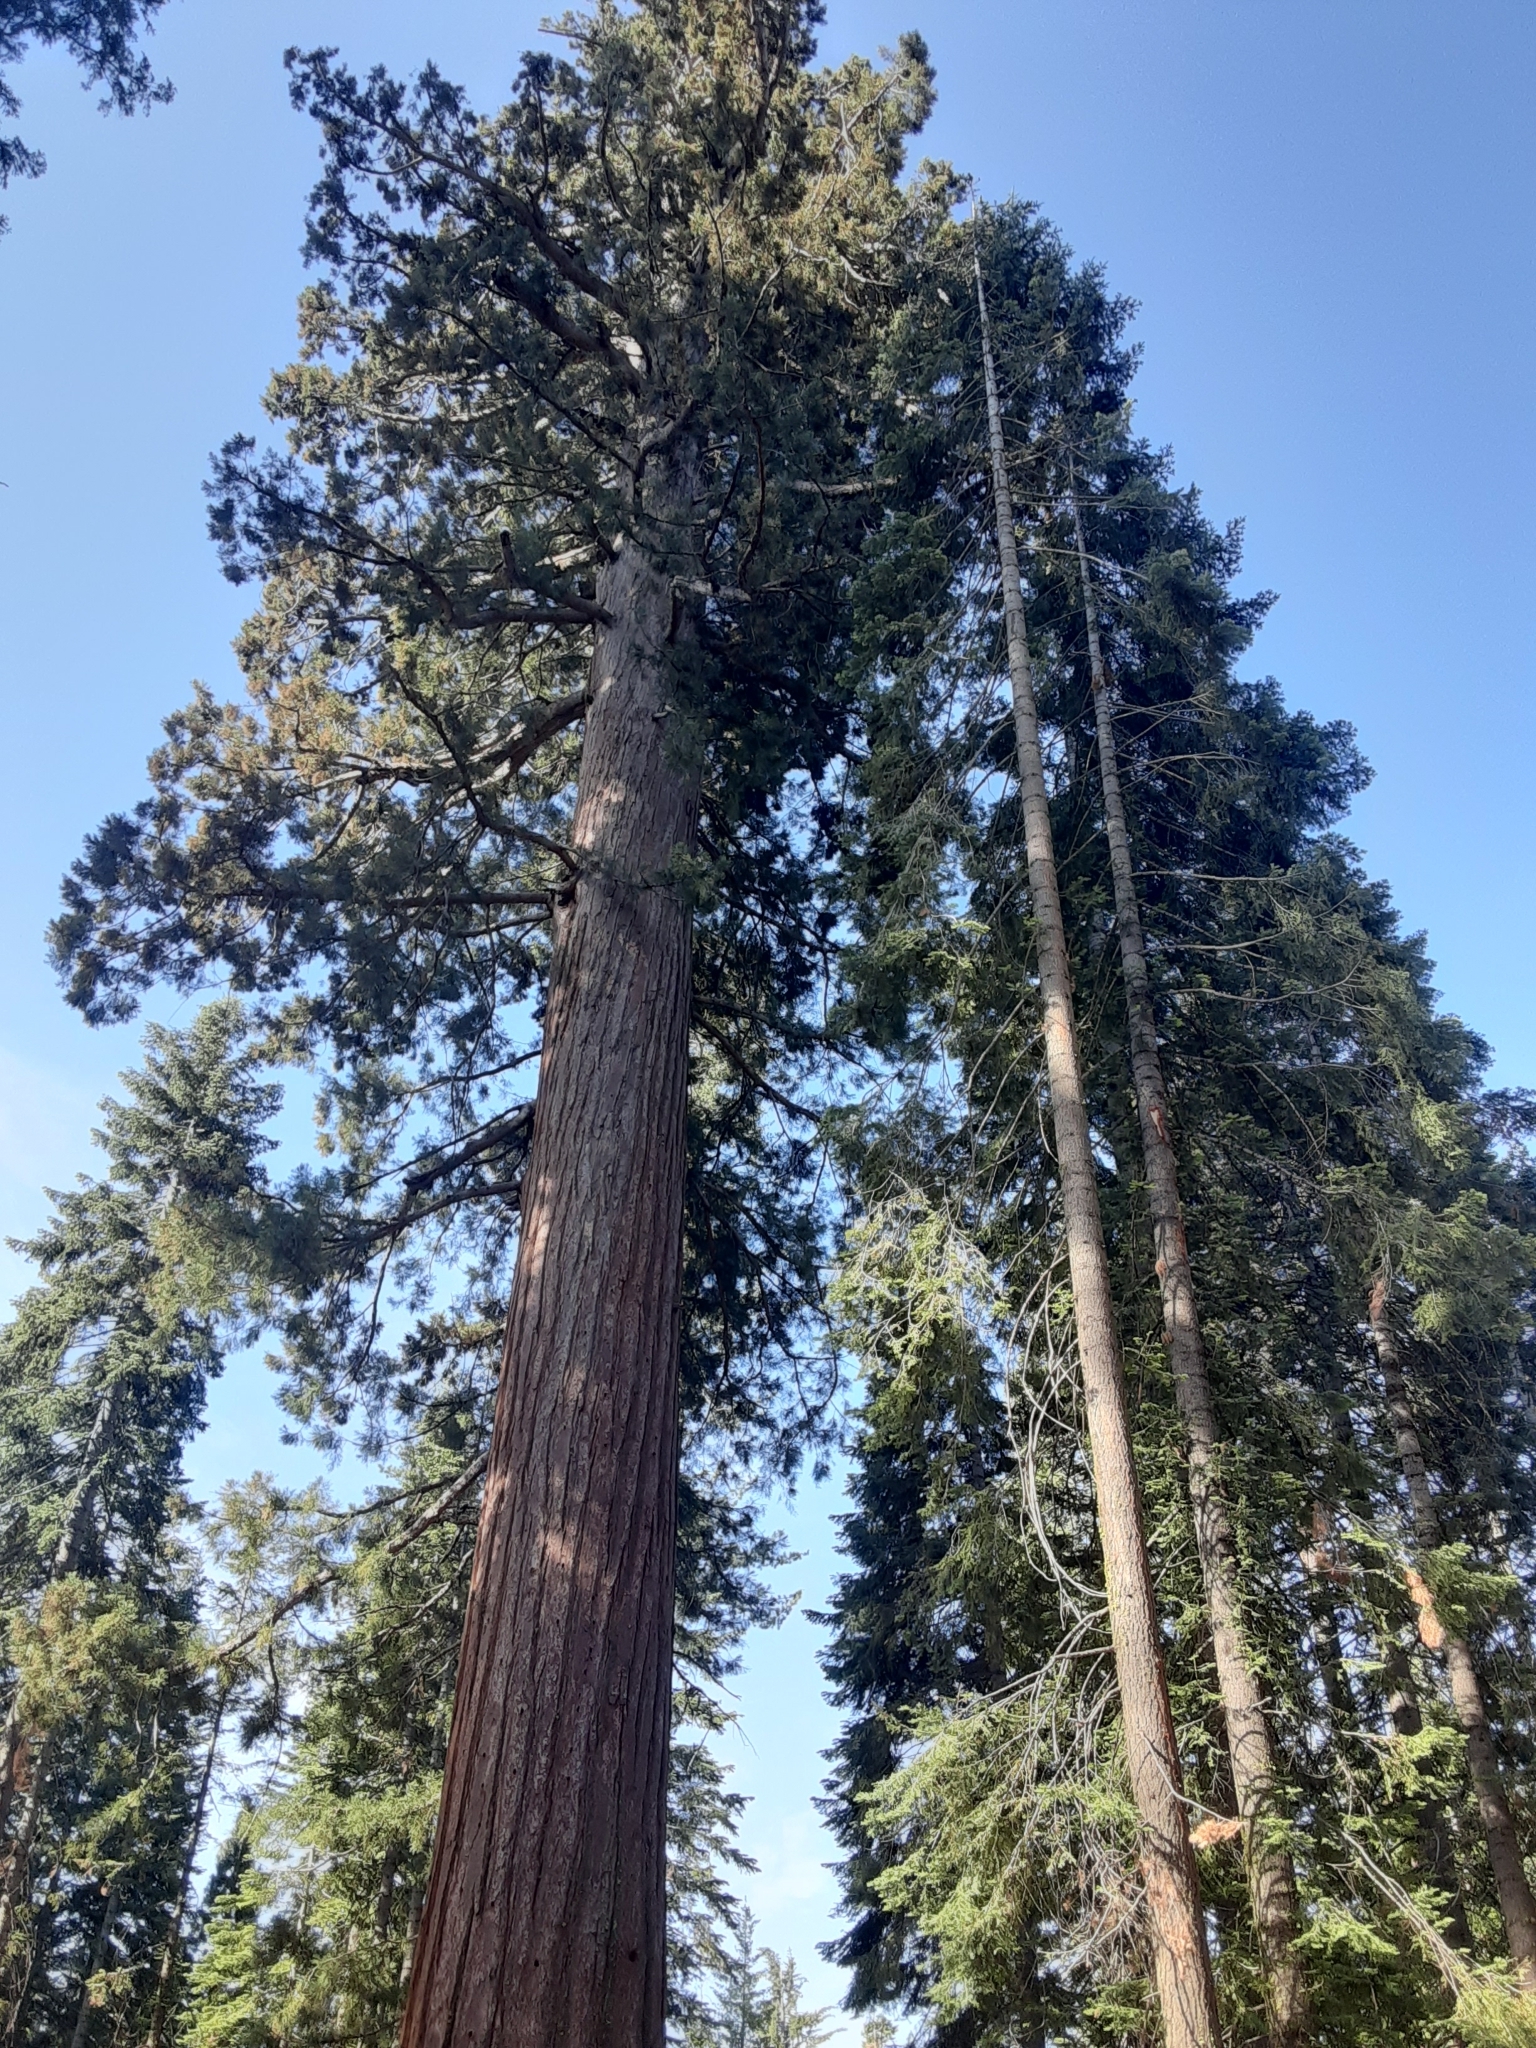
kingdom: Plantae
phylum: Tracheophyta
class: Pinopsida
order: Pinales
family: Cupressaceae
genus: Sequoiadendron
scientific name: Sequoiadendron giganteum
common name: Wellingtonia
